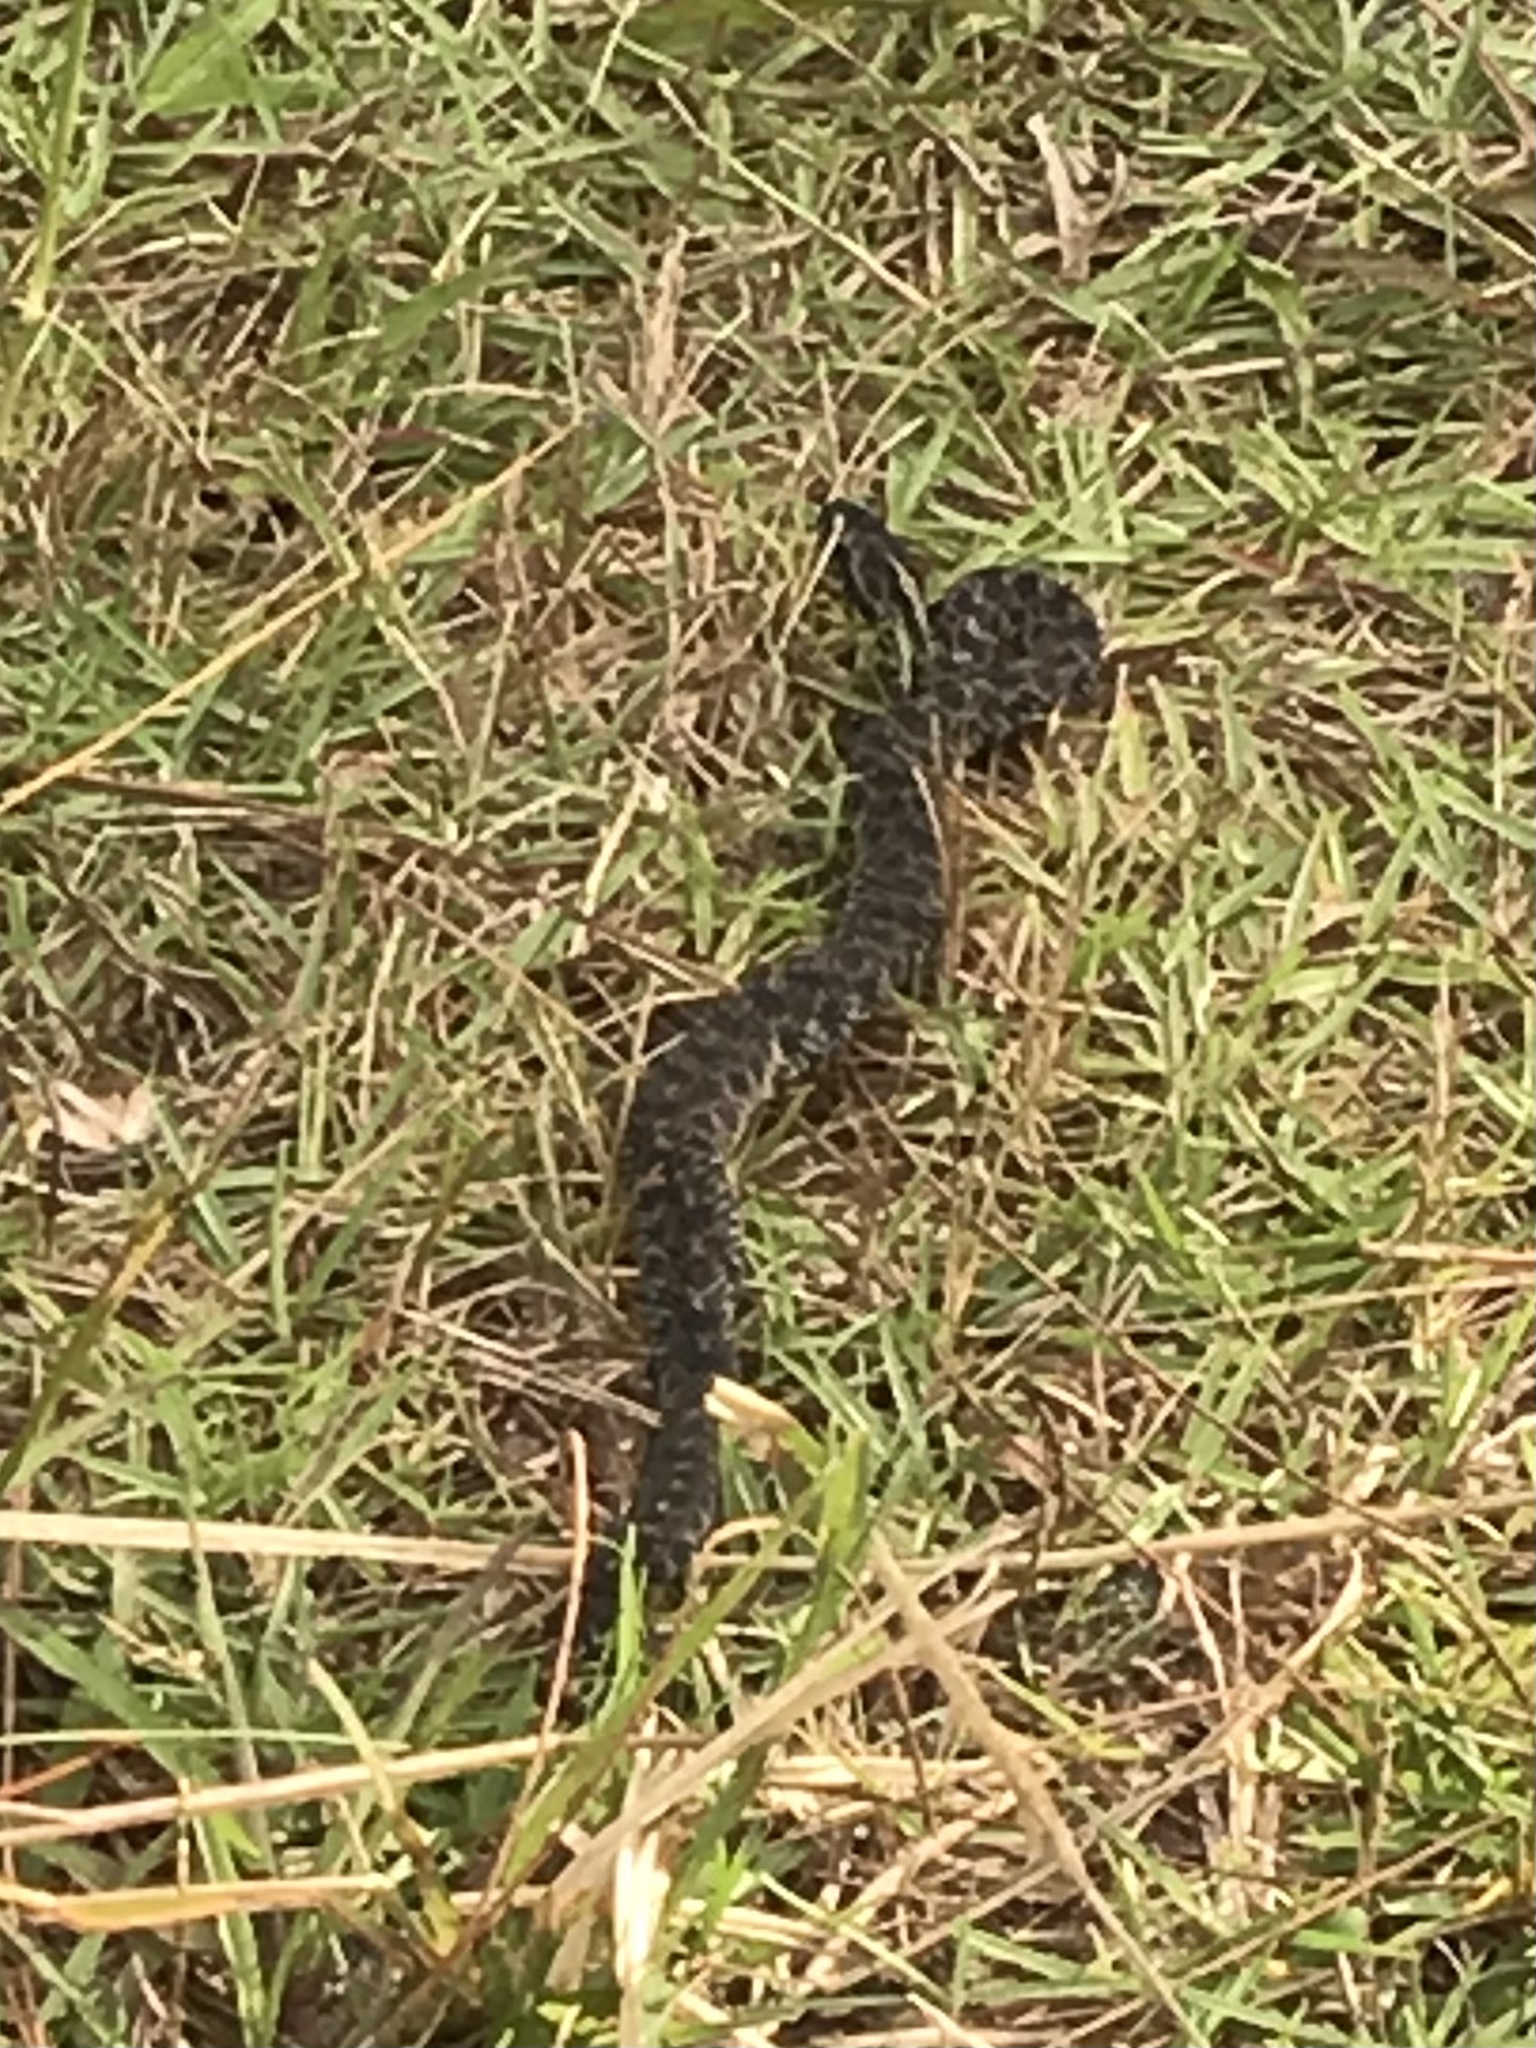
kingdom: Animalia
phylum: Chordata
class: Squamata
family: Viperidae
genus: Sistrurus
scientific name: Sistrurus miliarius
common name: Pygmy rattlesnake
